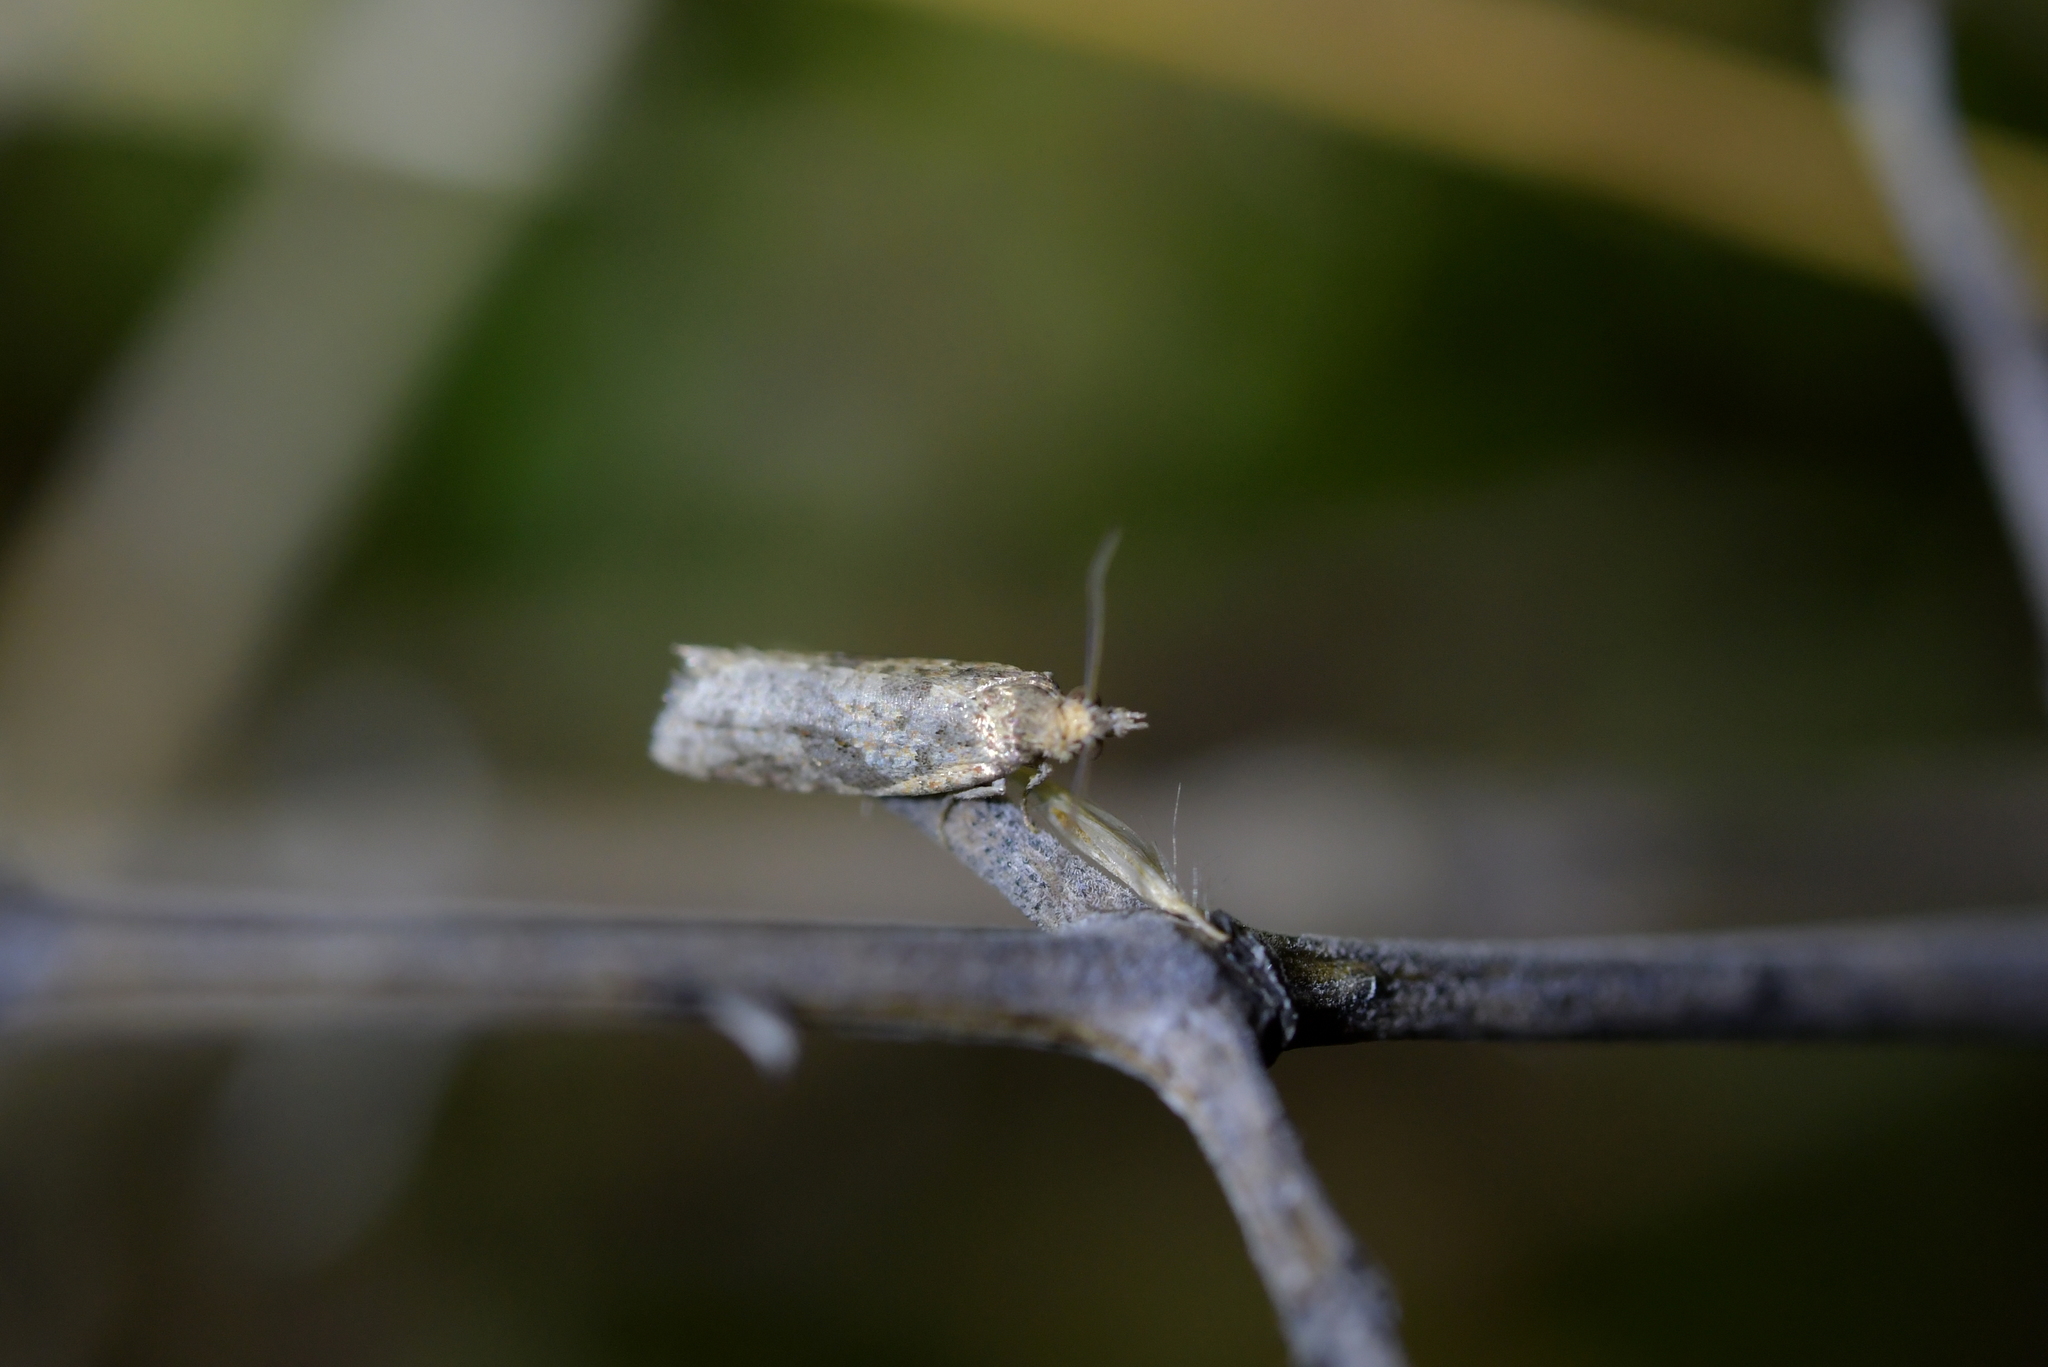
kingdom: Animalia
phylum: Arthropoda
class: Insecta
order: Lepidoptera
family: Tortricidae
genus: Capua
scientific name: Capua semiferana
